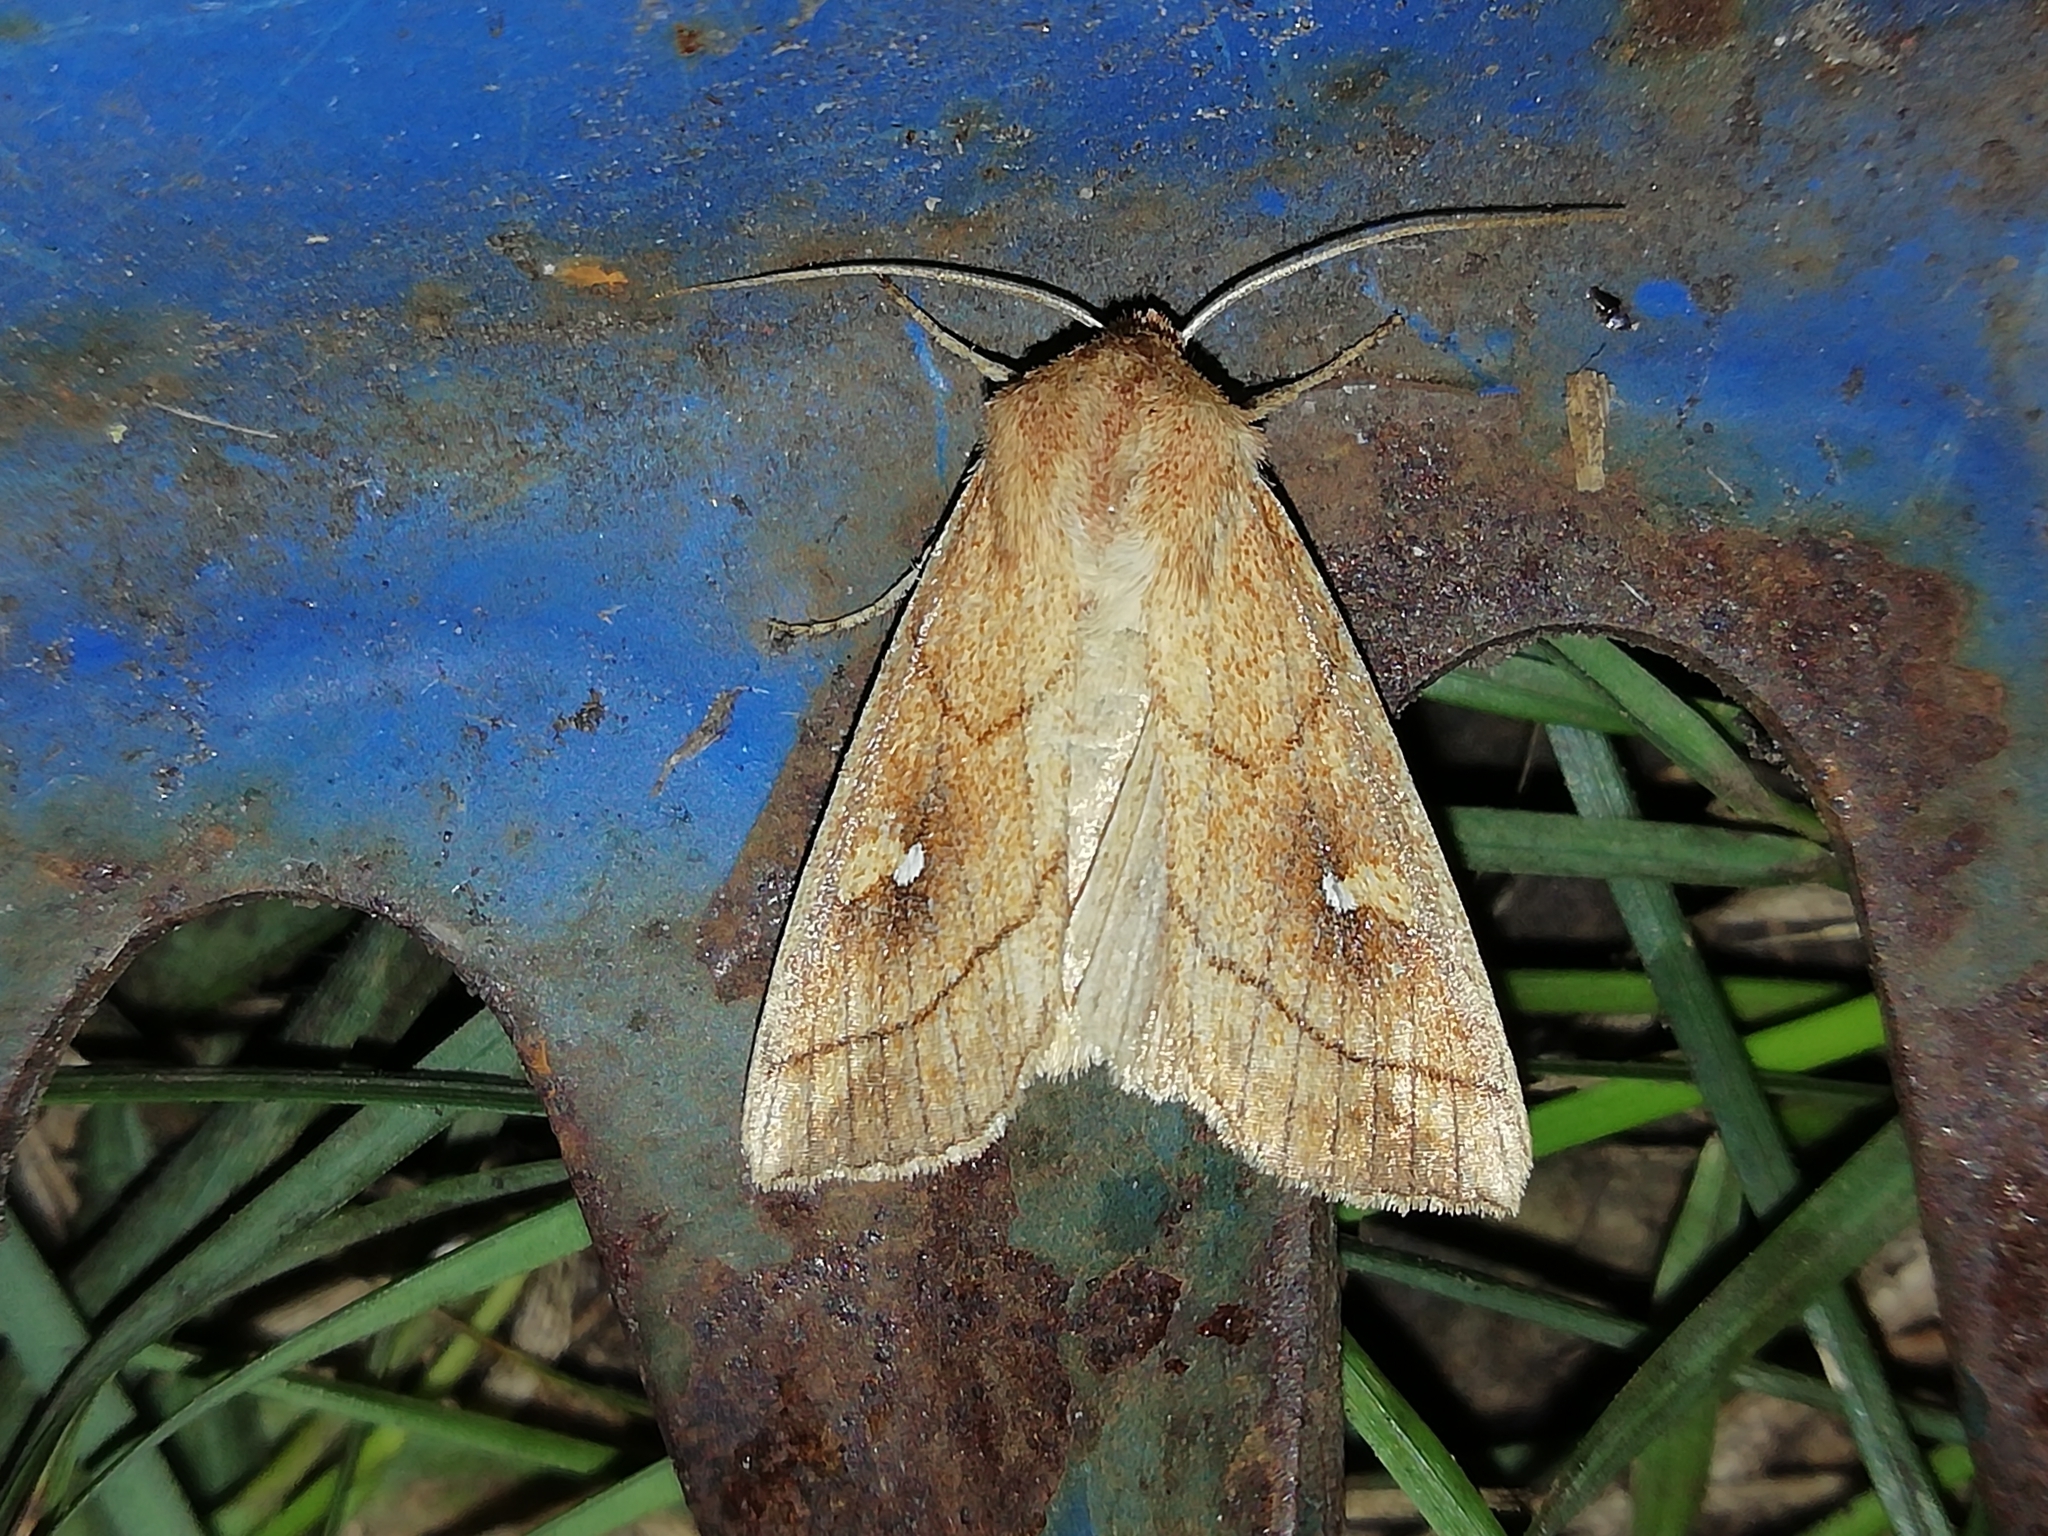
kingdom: Animalia
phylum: Arthropoda
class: Insecta
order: Lepidoptera
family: Noctuidae
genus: Mythimna
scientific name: Mythimna conigera
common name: Brown-line bright-eye
